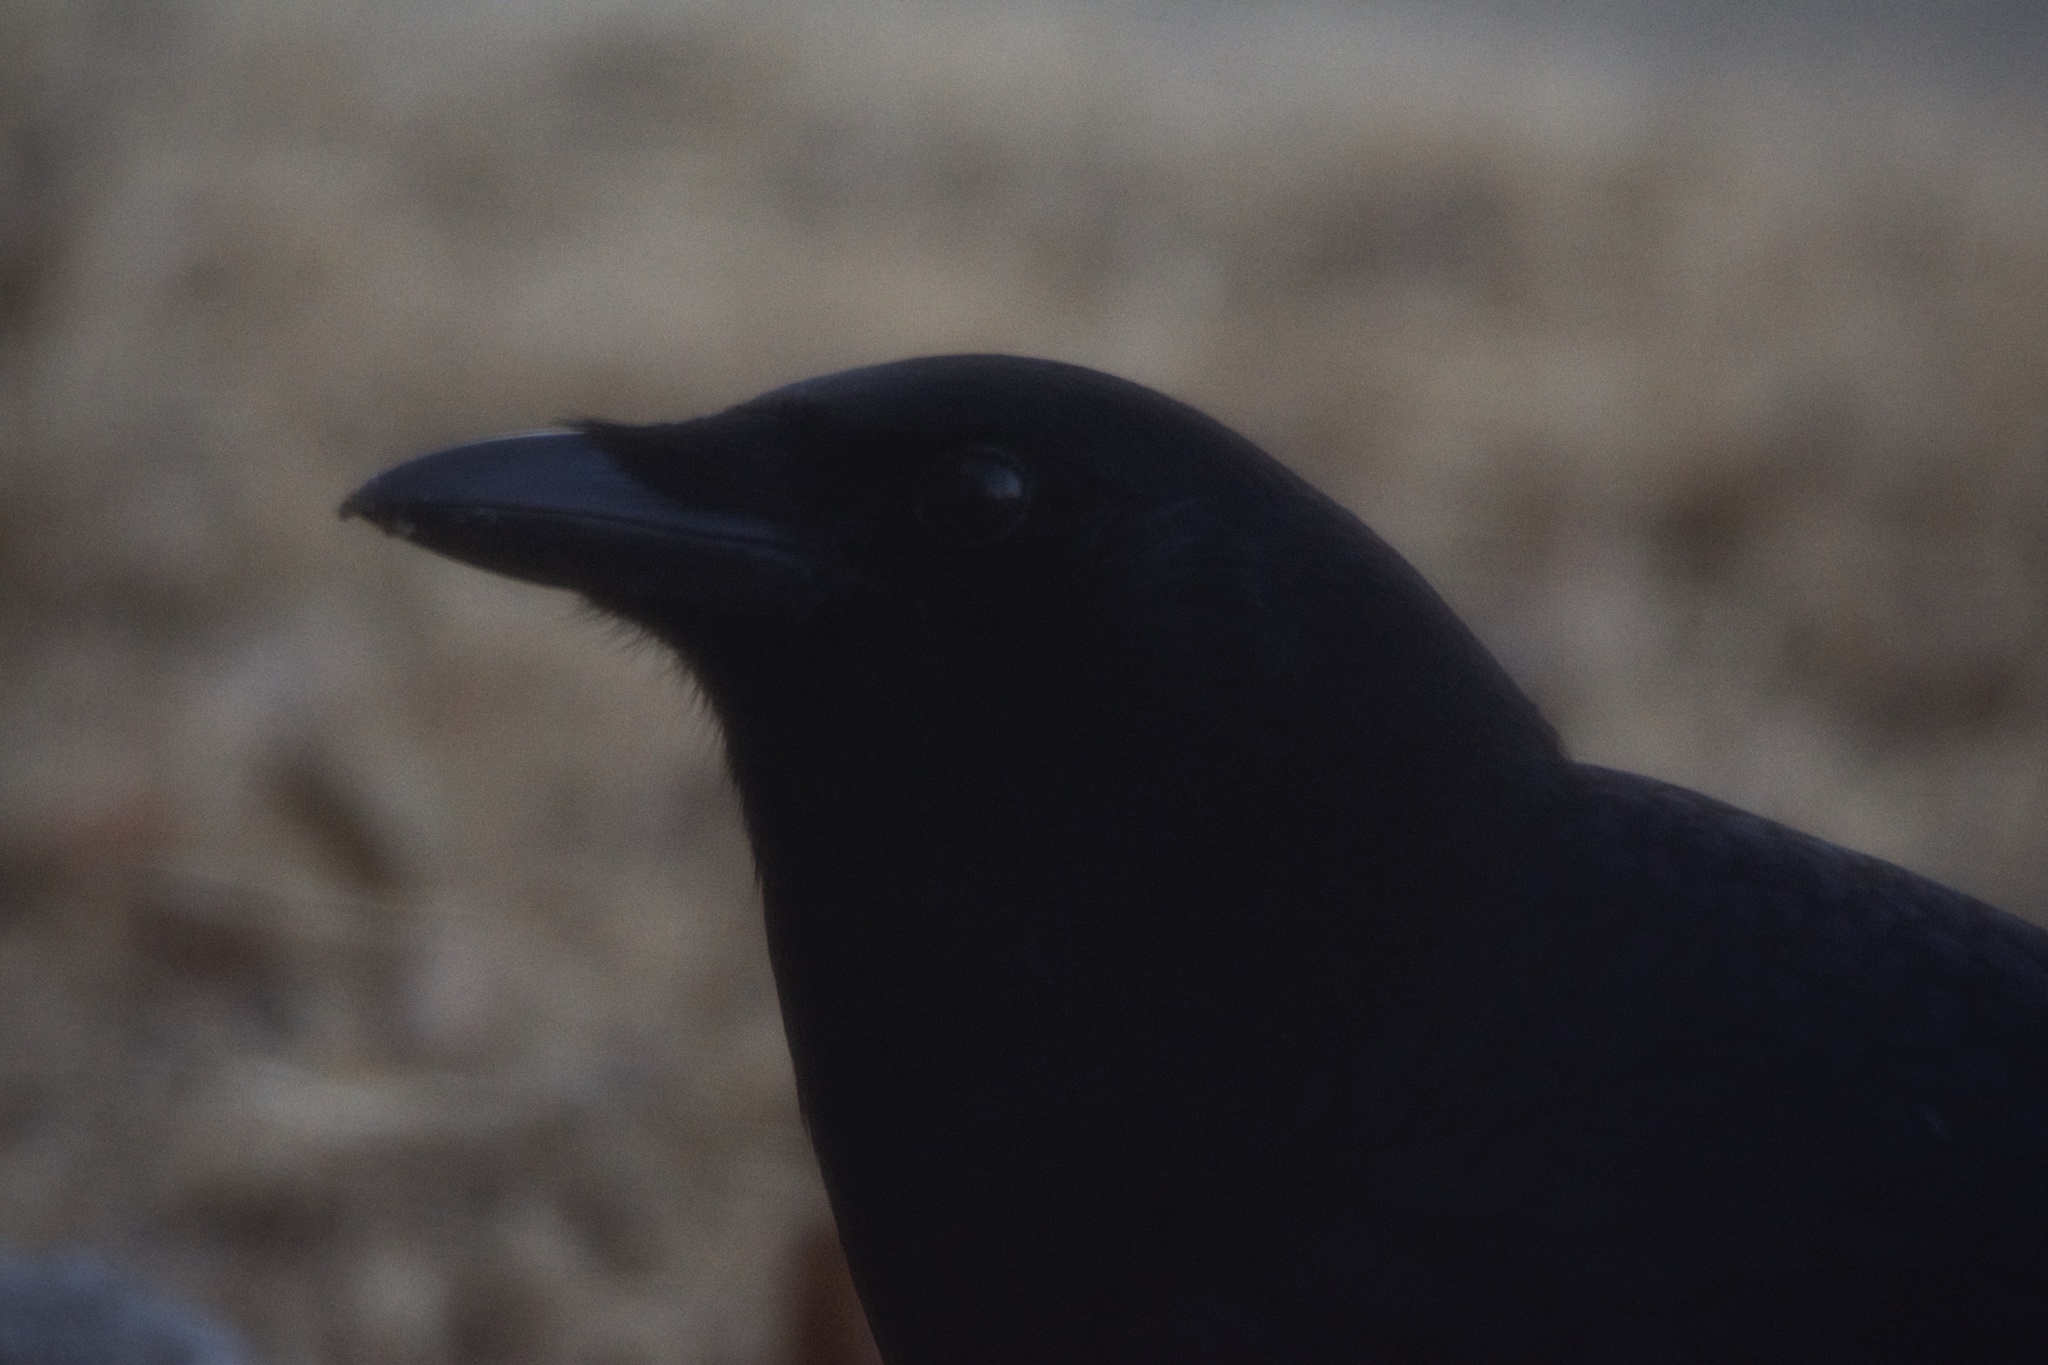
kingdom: Animalia
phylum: Chordata
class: Aves
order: Passeriformes
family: Corvidae
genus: Corvus
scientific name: Corvus brachyrhynchos
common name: American crow
